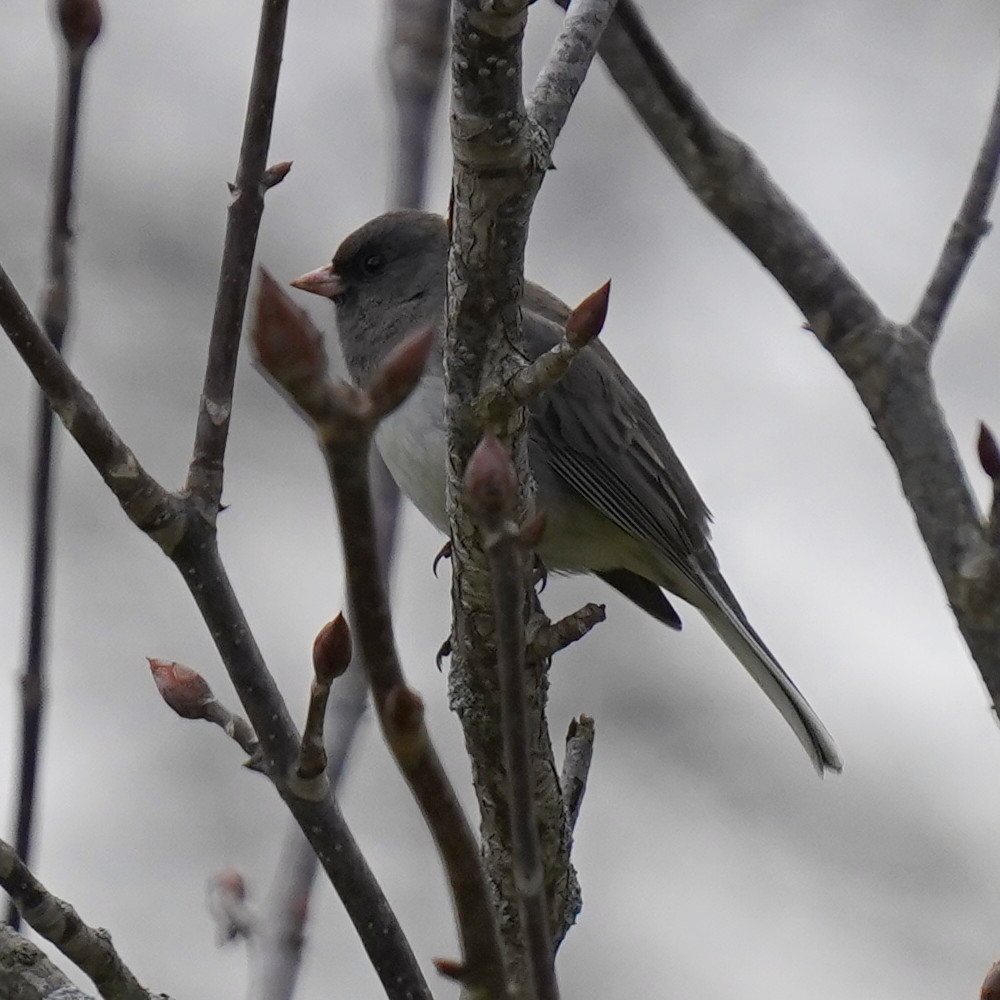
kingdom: Animalia
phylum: Chordata
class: Aves
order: Passeriformes
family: Passerellidae
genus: Junco
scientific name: Junco hyemalis
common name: Dark-eyed junco
